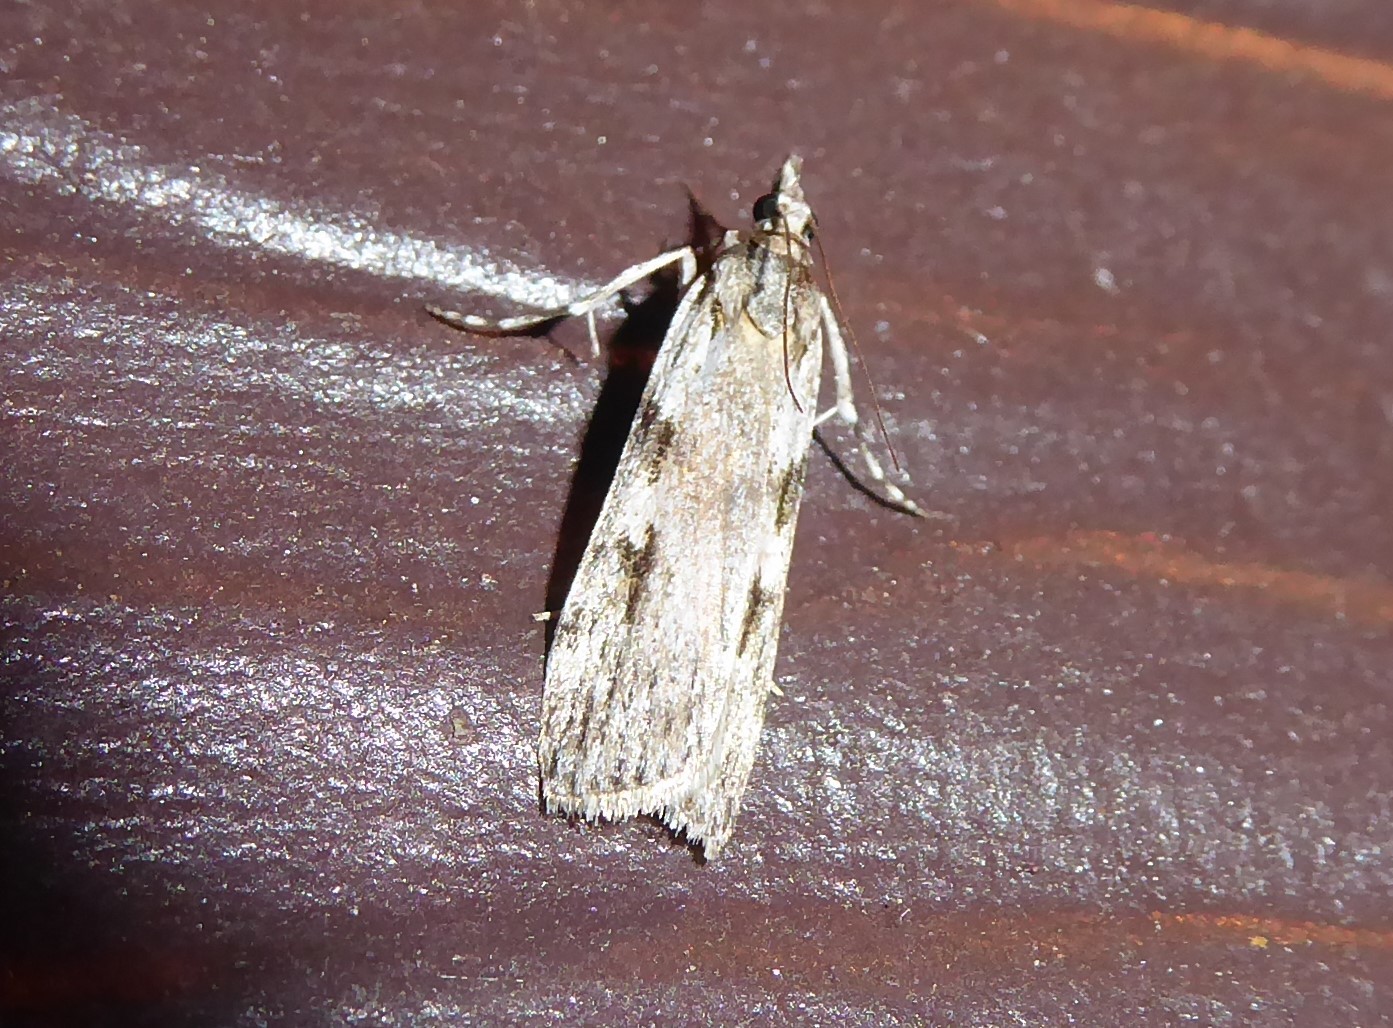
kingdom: Animalia
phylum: Arthropoda
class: Insecta
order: Lepidoptera
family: Crambidae
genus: Scoparia
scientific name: Scoparia halopis
